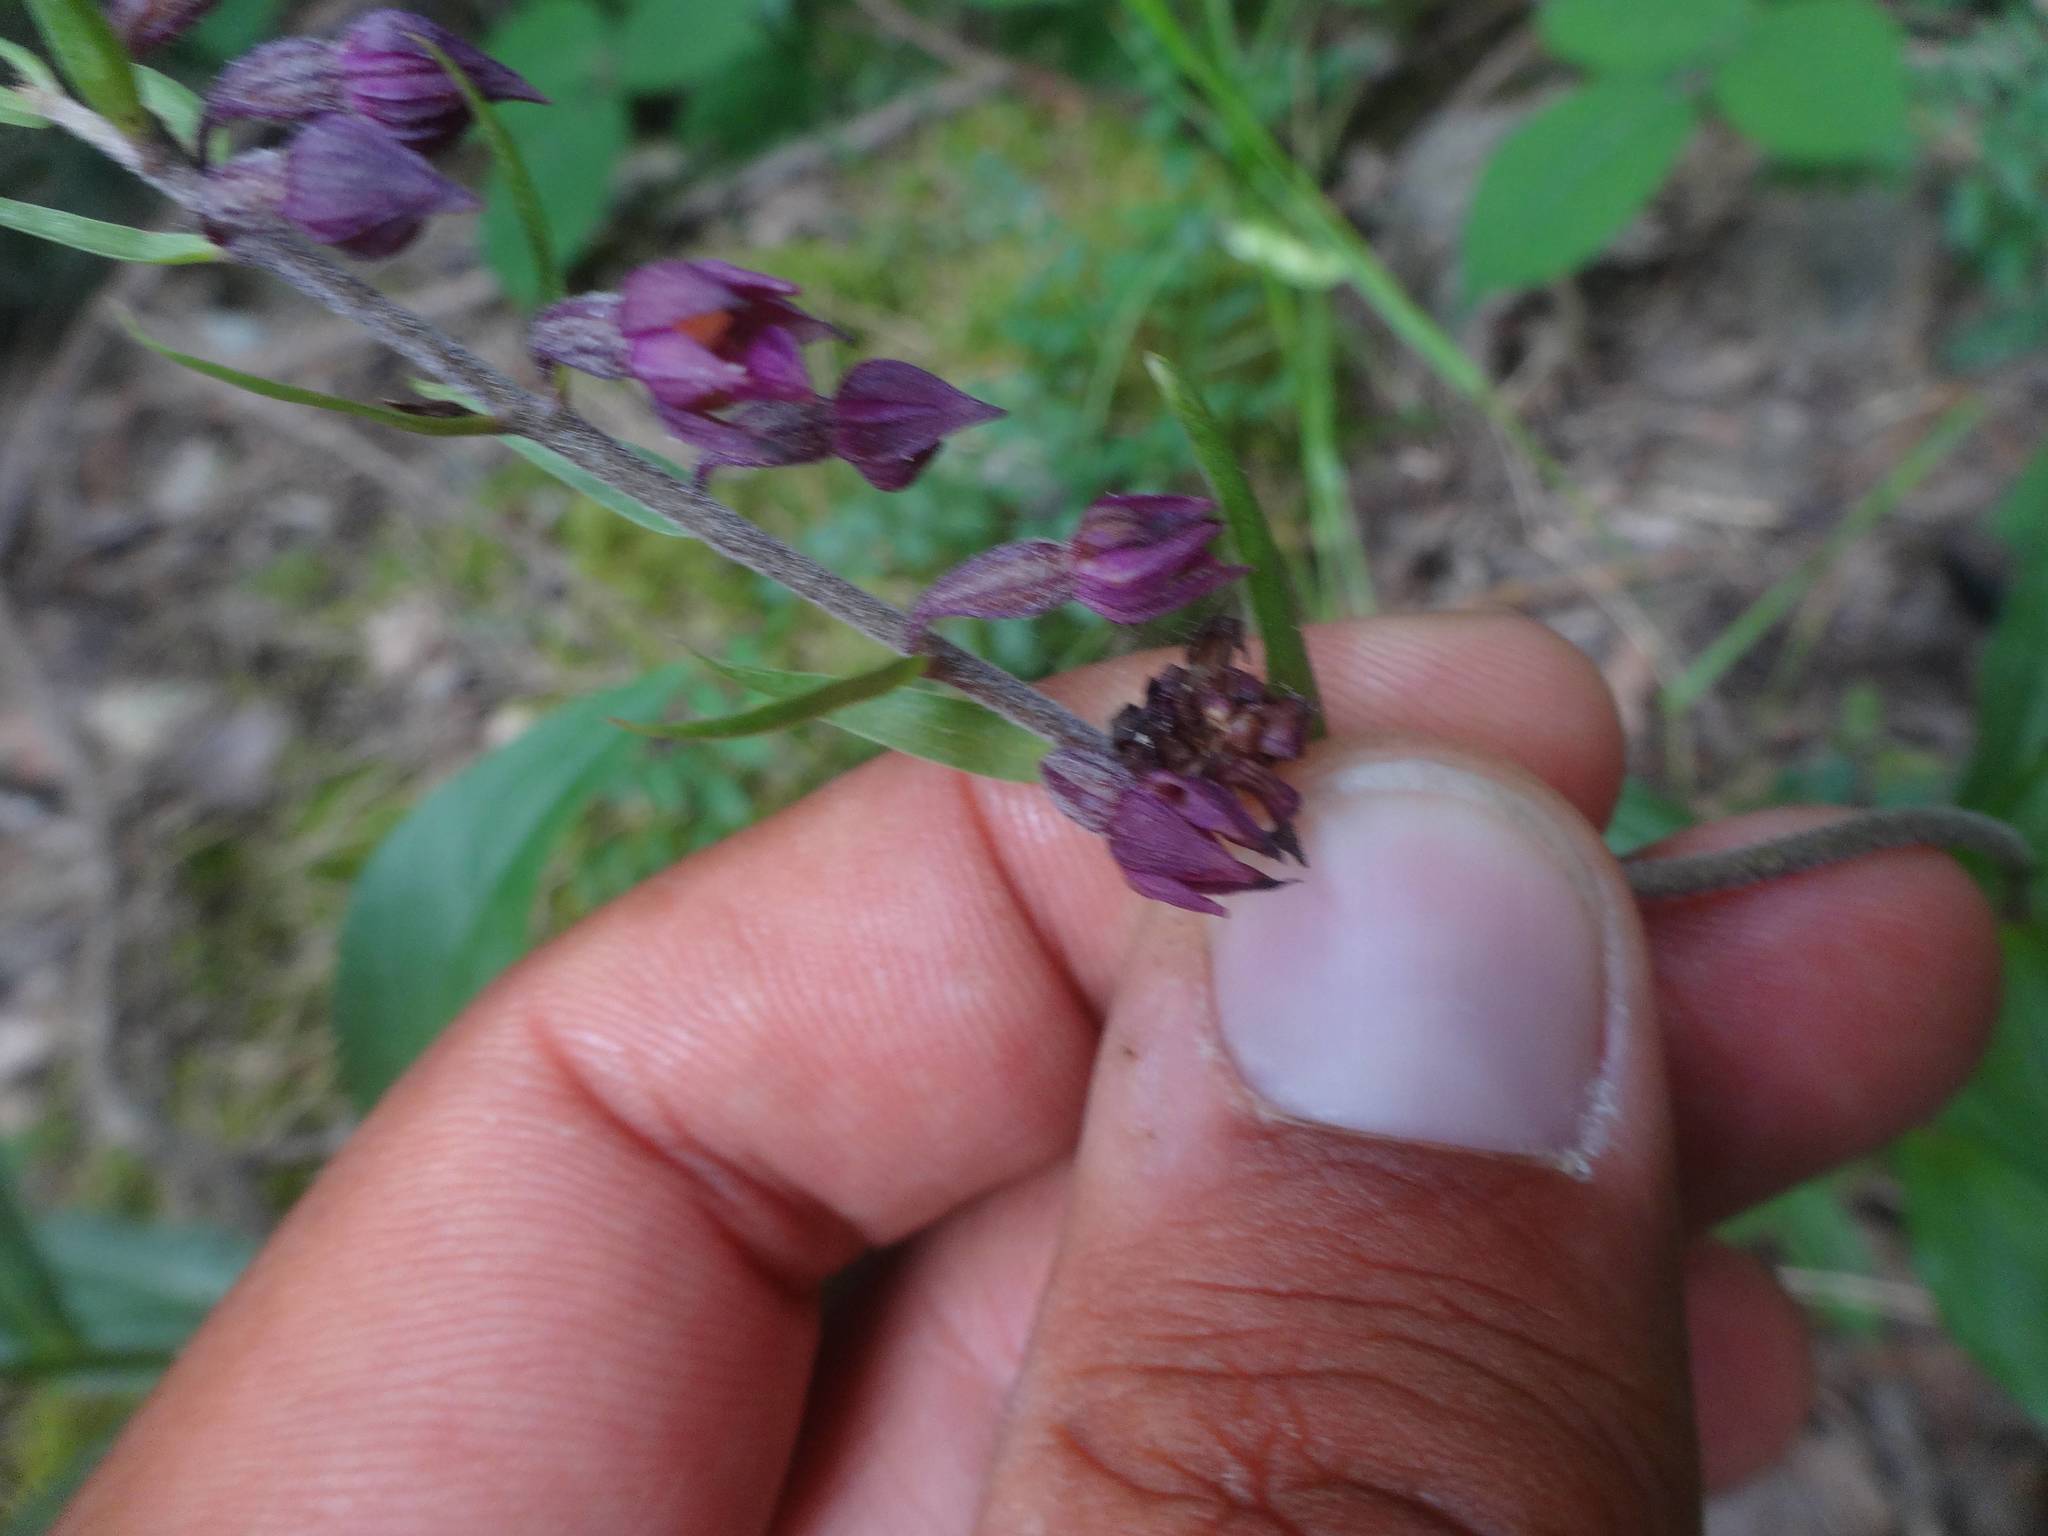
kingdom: Plantae
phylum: Tracheophyta
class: Liliopsida
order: Asparagales
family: Orchidaceae
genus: Epipactis
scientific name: Epipactis atrorubens
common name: Dark-red helleborine
